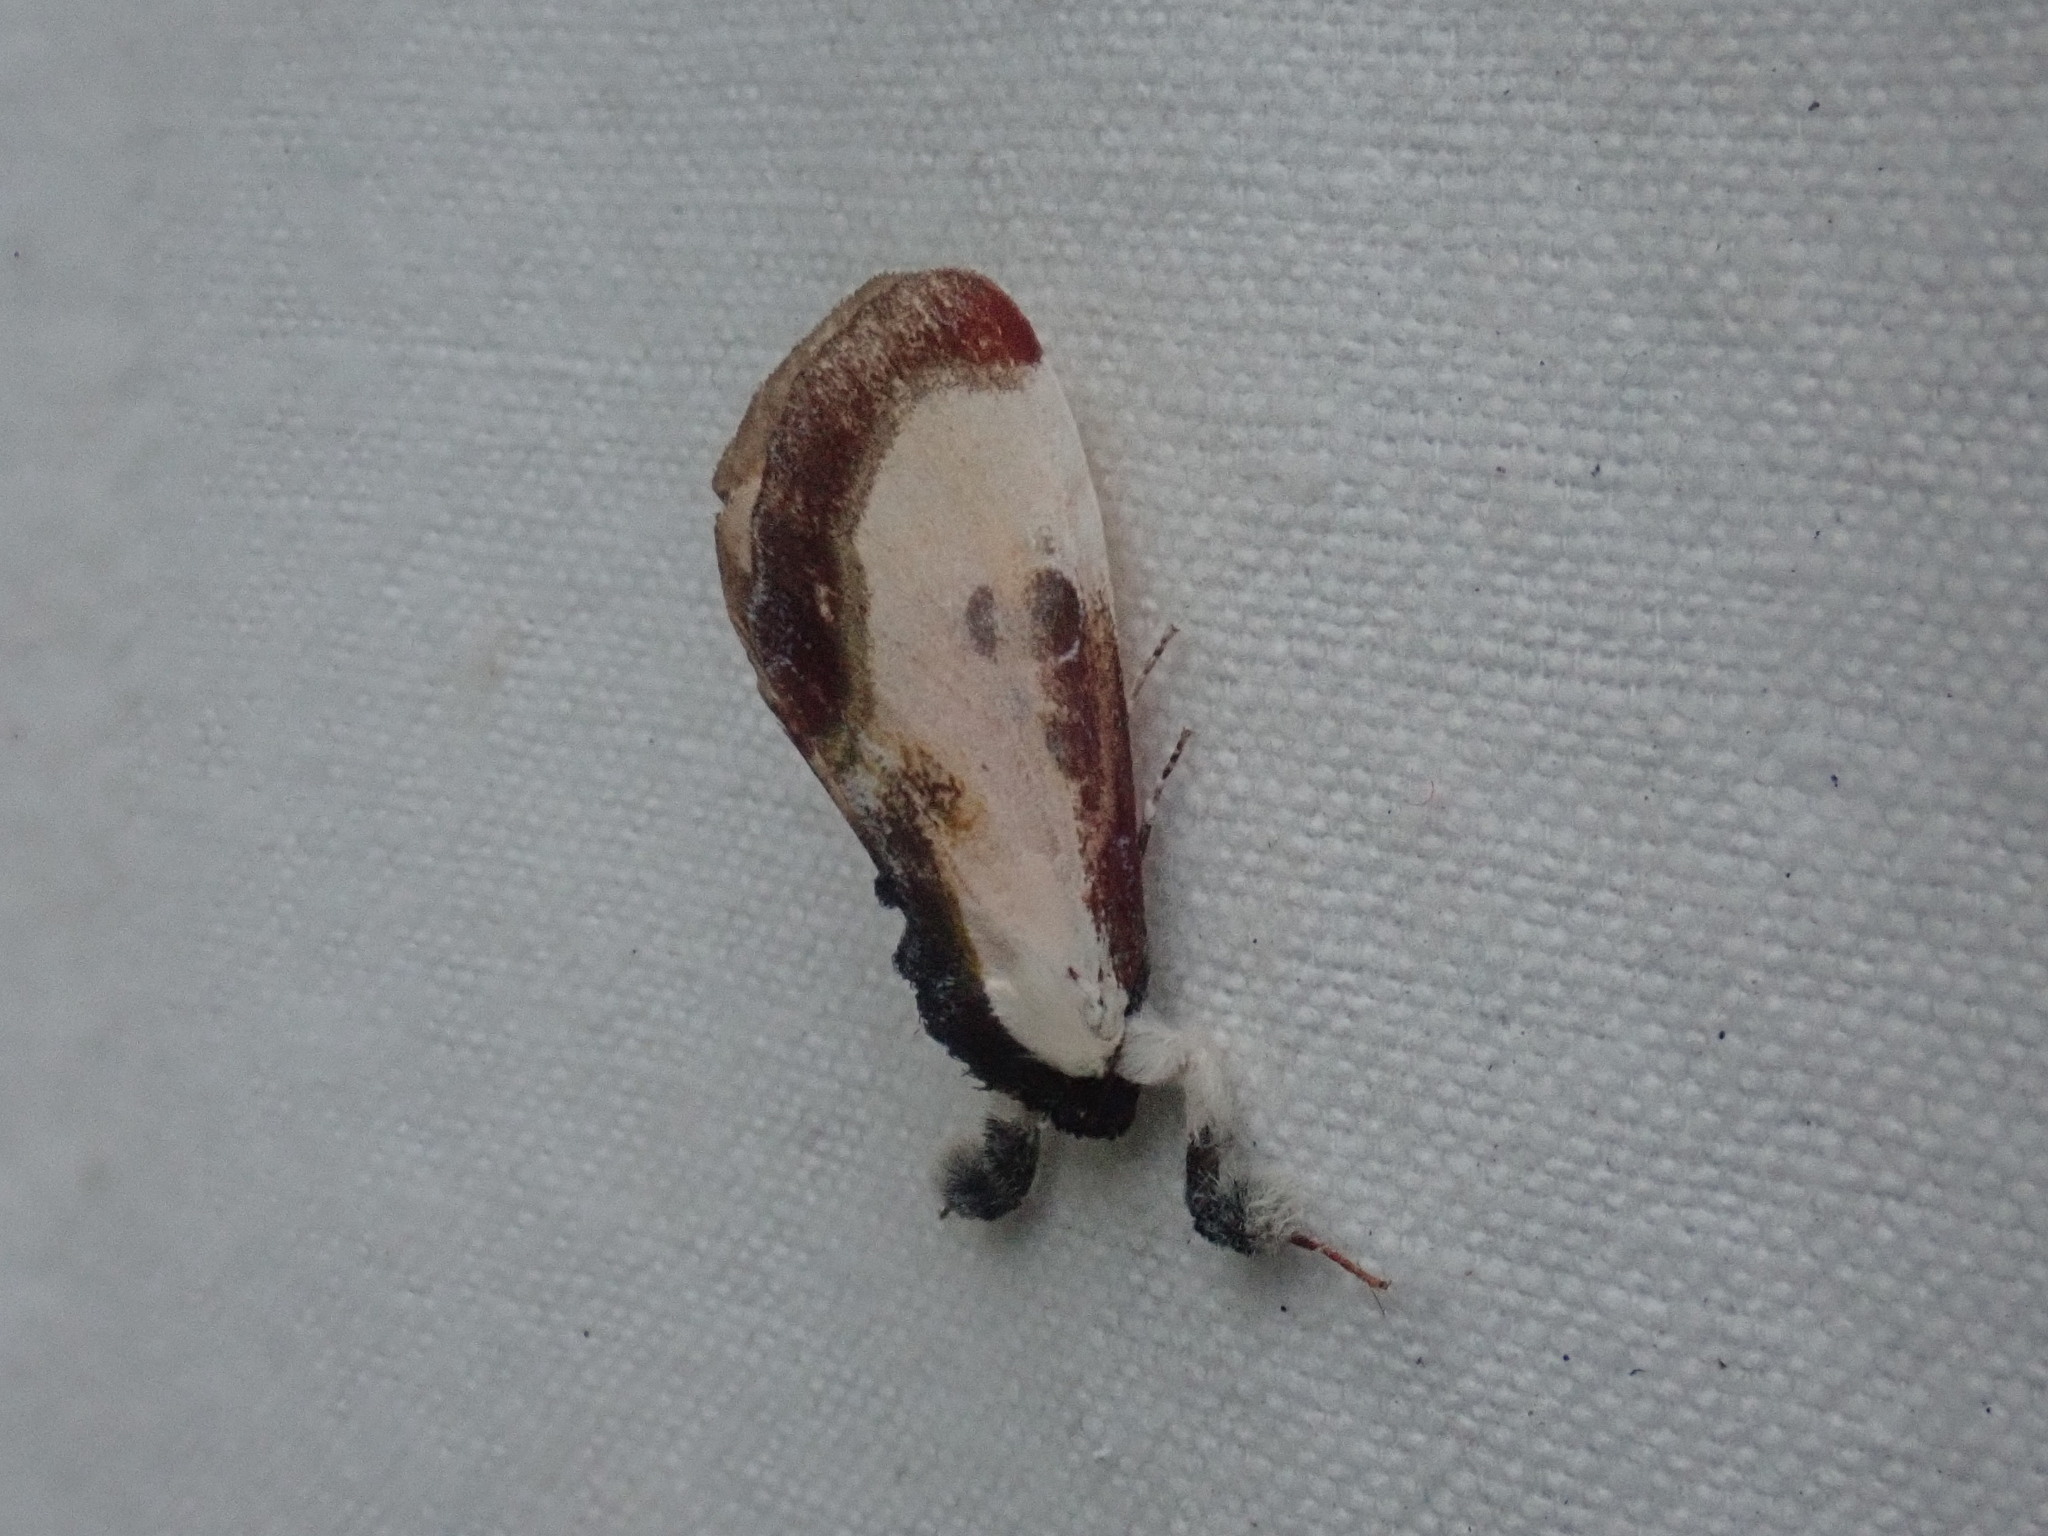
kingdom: Animalia
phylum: Arthropoda
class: Insecta
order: Lepidoptera
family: Noctuidae
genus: Eudryas
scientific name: Eudryas grata
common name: Beautiful wood-nymph
